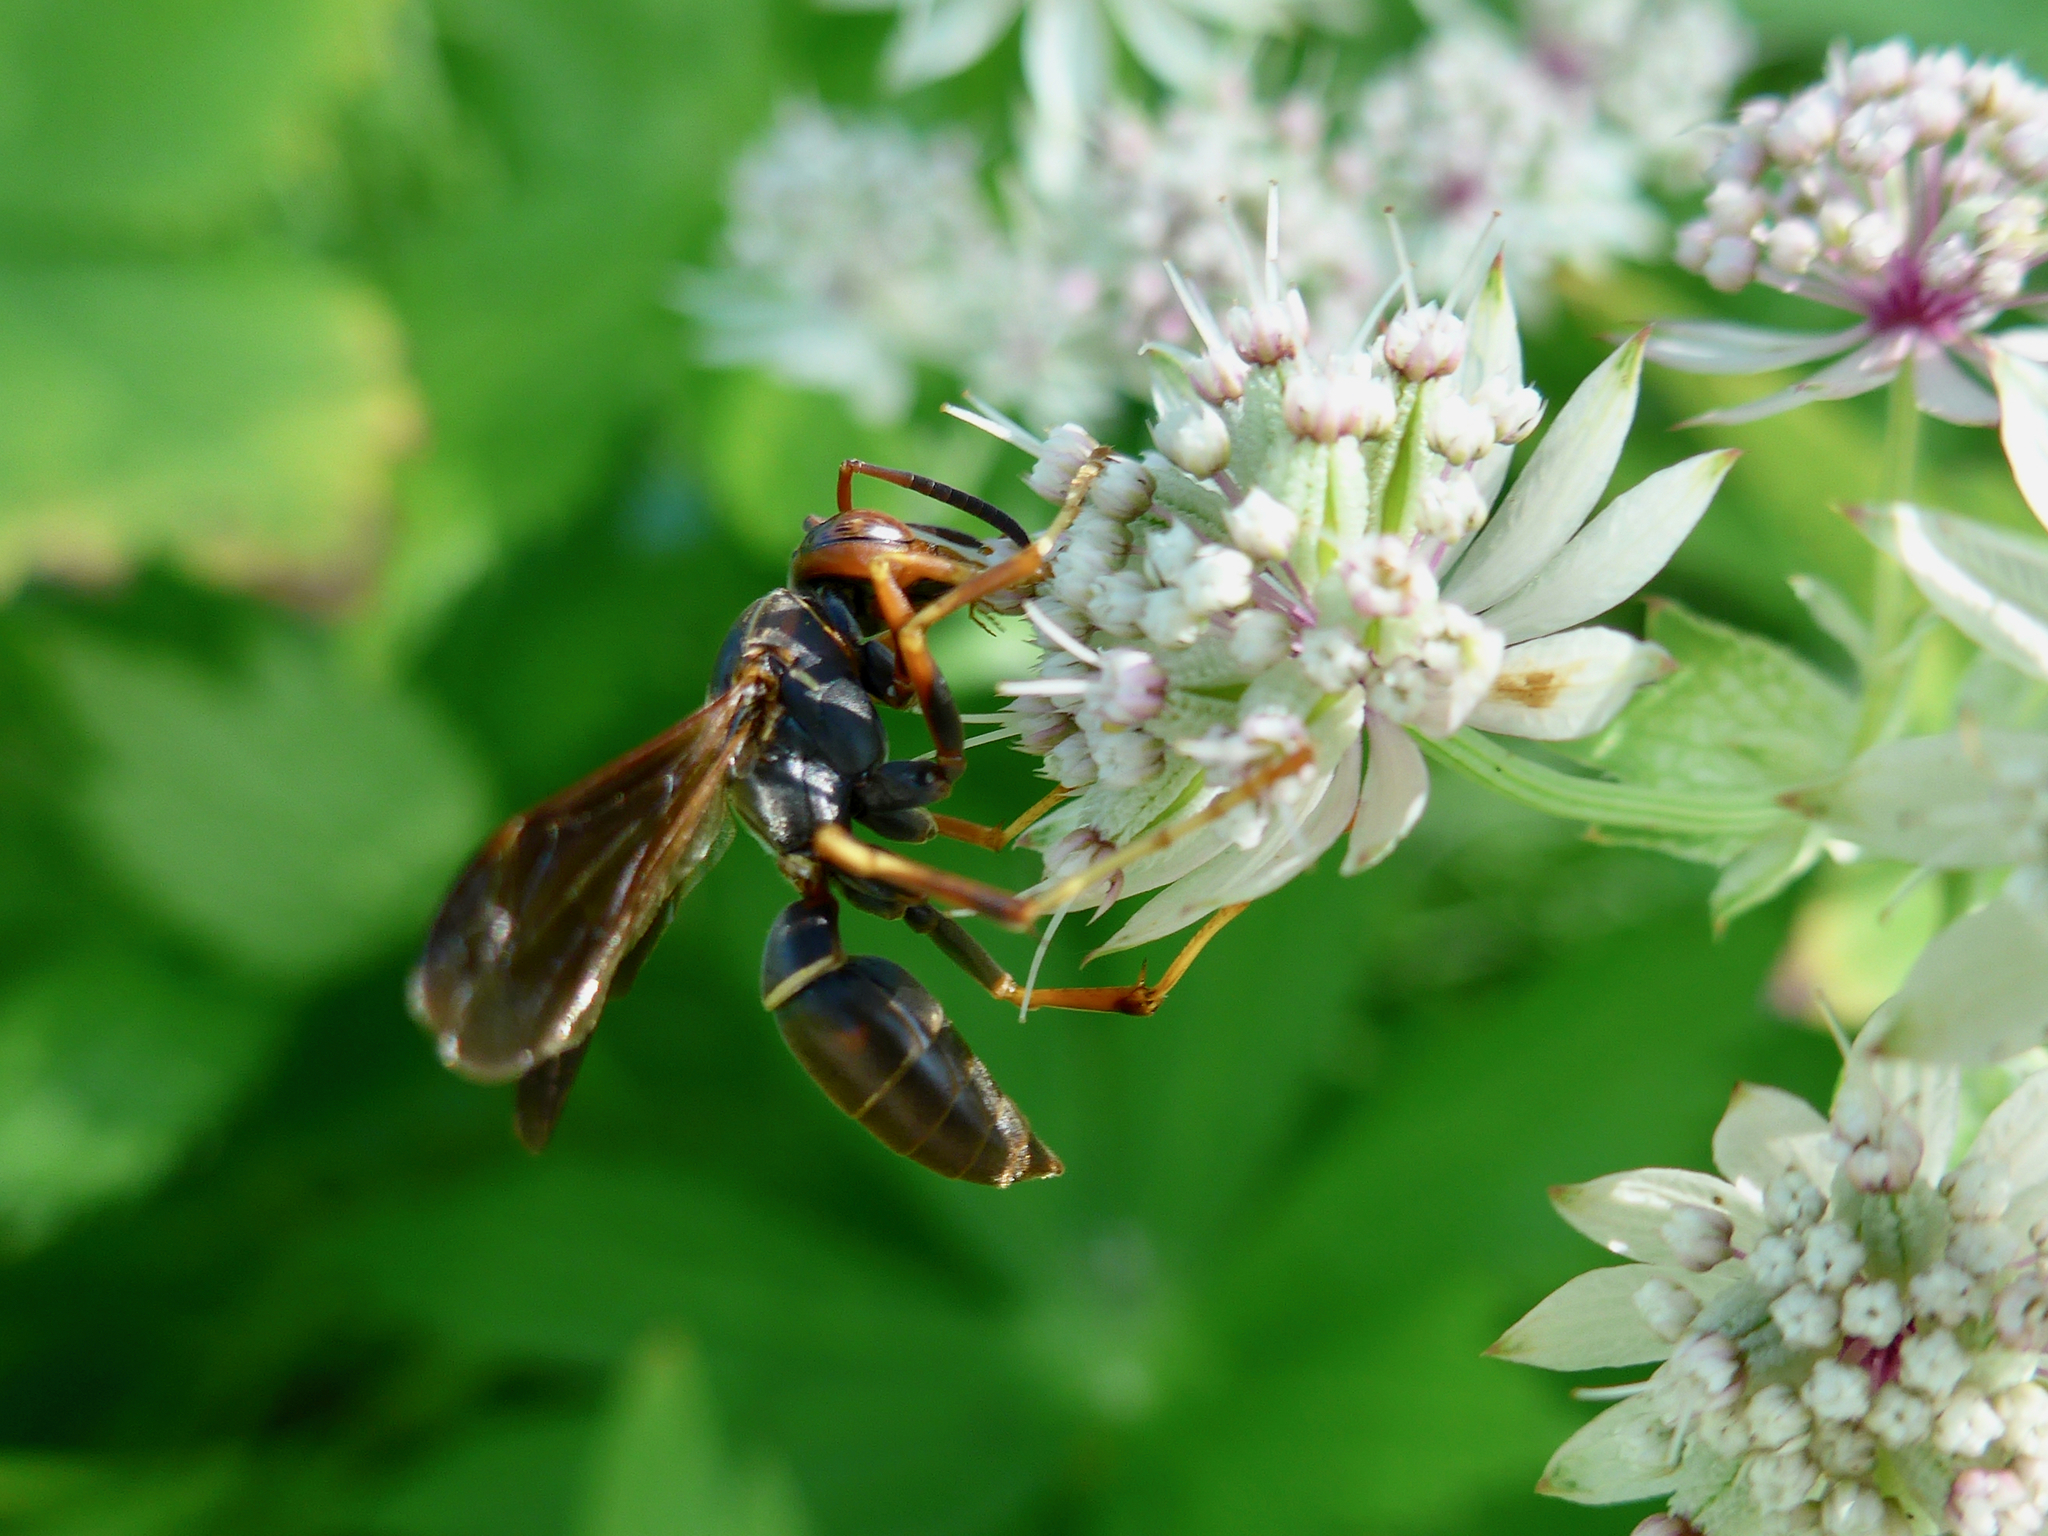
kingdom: Animalia
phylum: Arthropoda
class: Insecta
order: Hymenoptera
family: Eumenidae
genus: Polistes
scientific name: Polistes fuscatus
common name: Dark paper wasp
